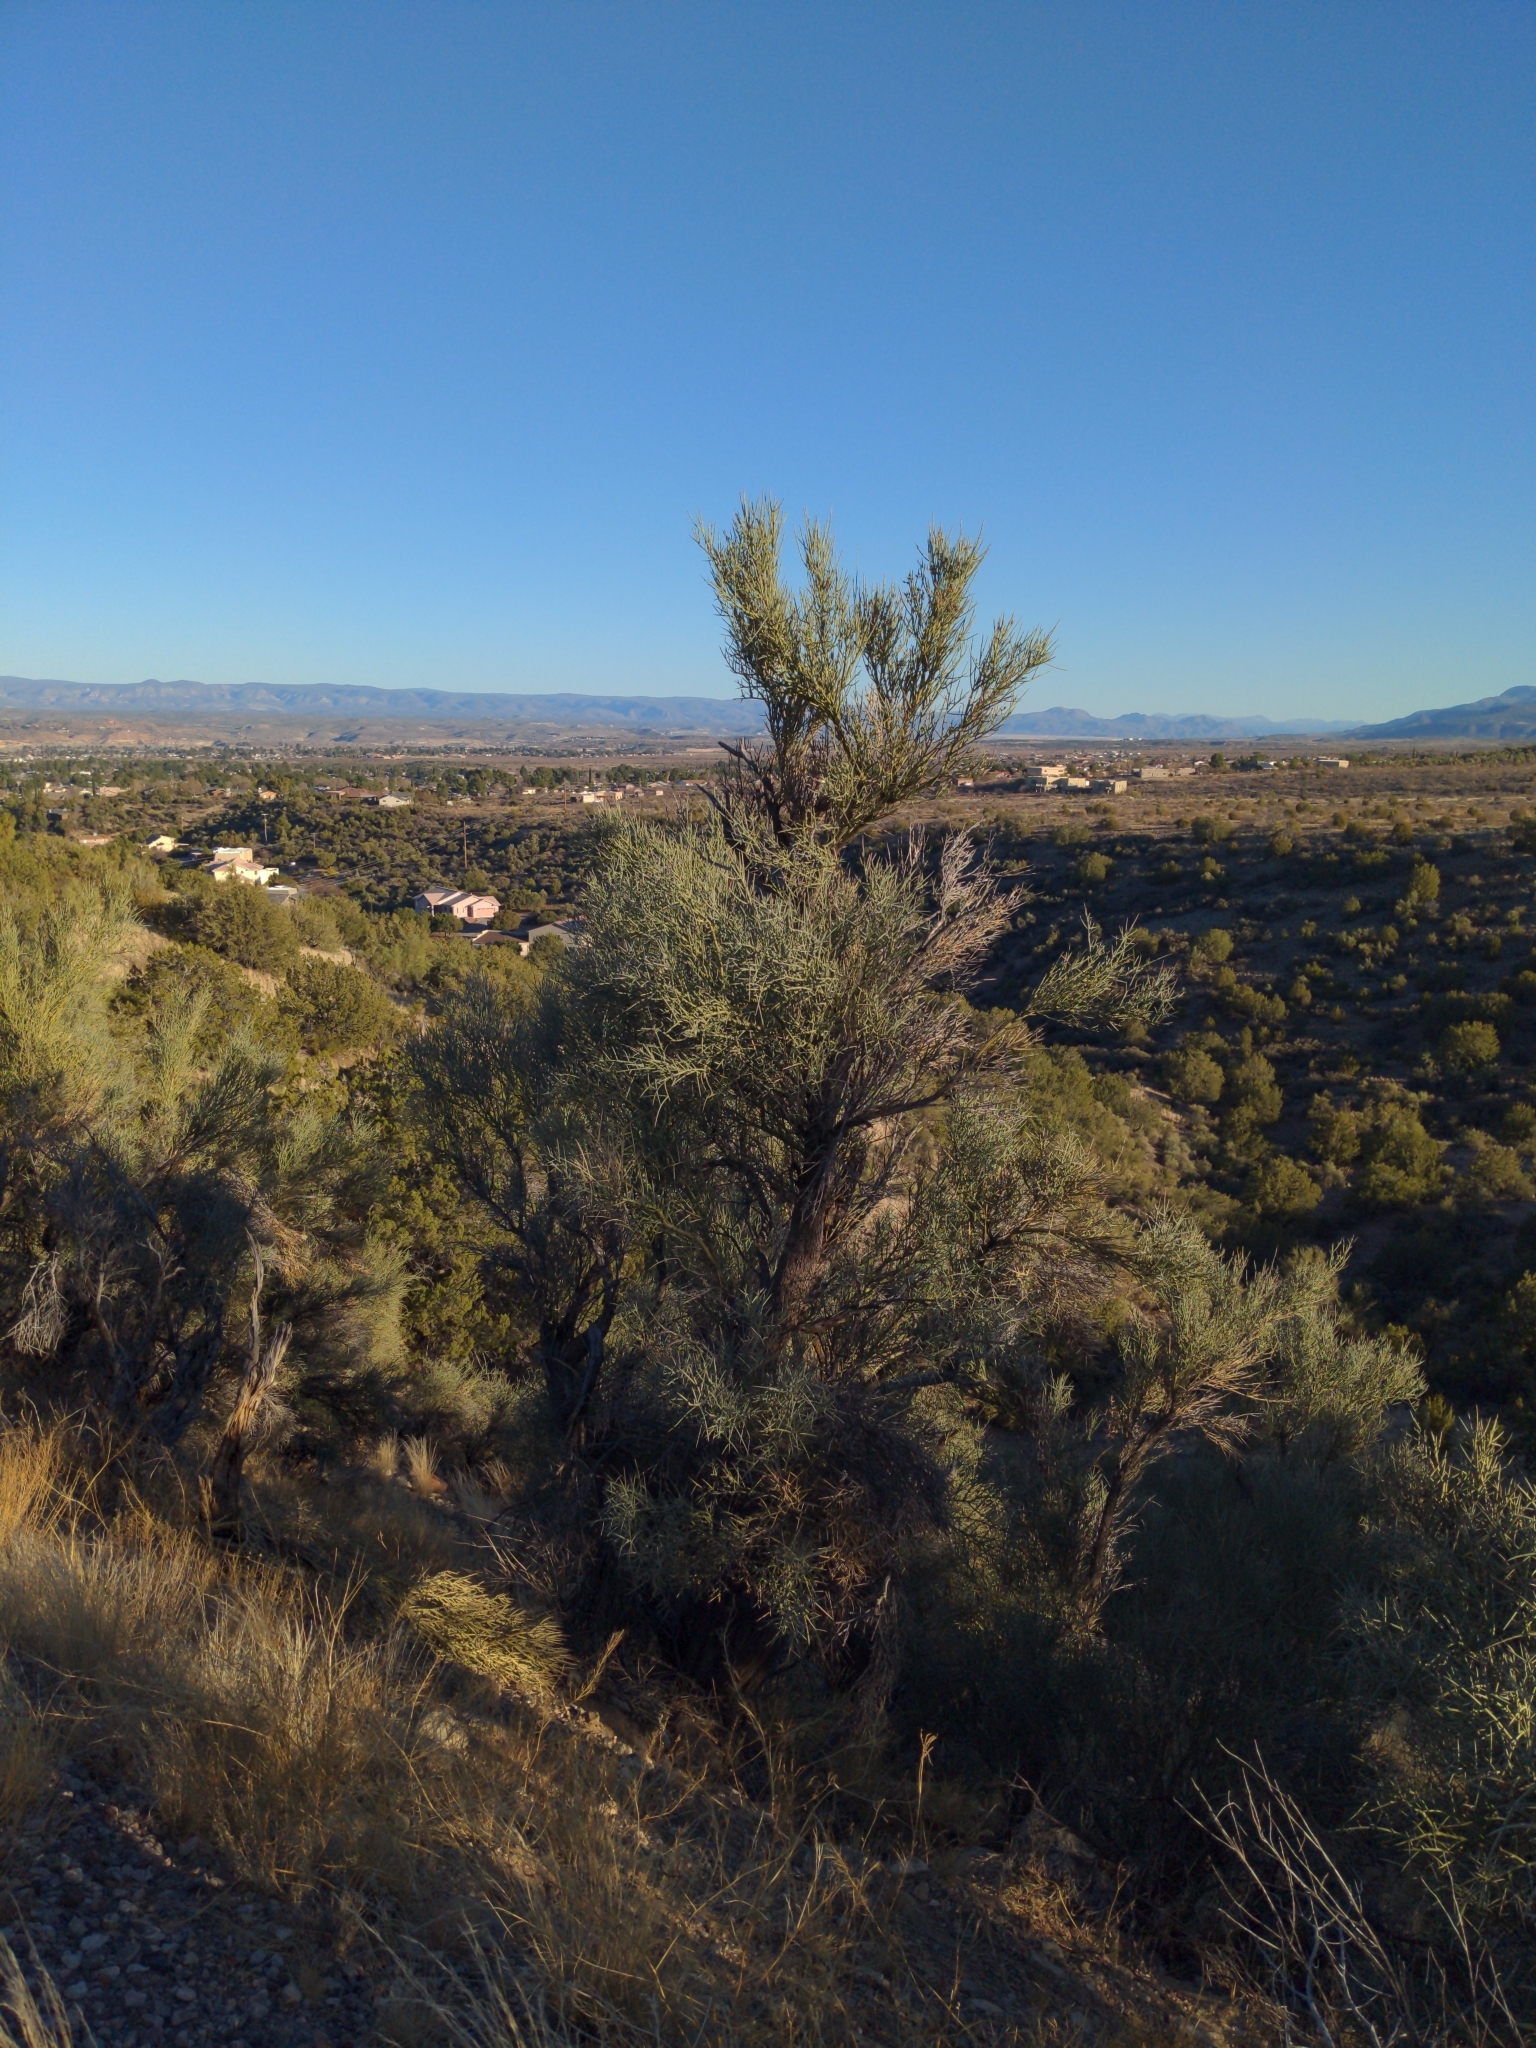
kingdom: Plantae
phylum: Tracheophyta
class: Magnoliopsida
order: Celastrales
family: Celastraceae
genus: Canotia
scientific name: Canotia holacantha
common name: Crucifixion thorns
